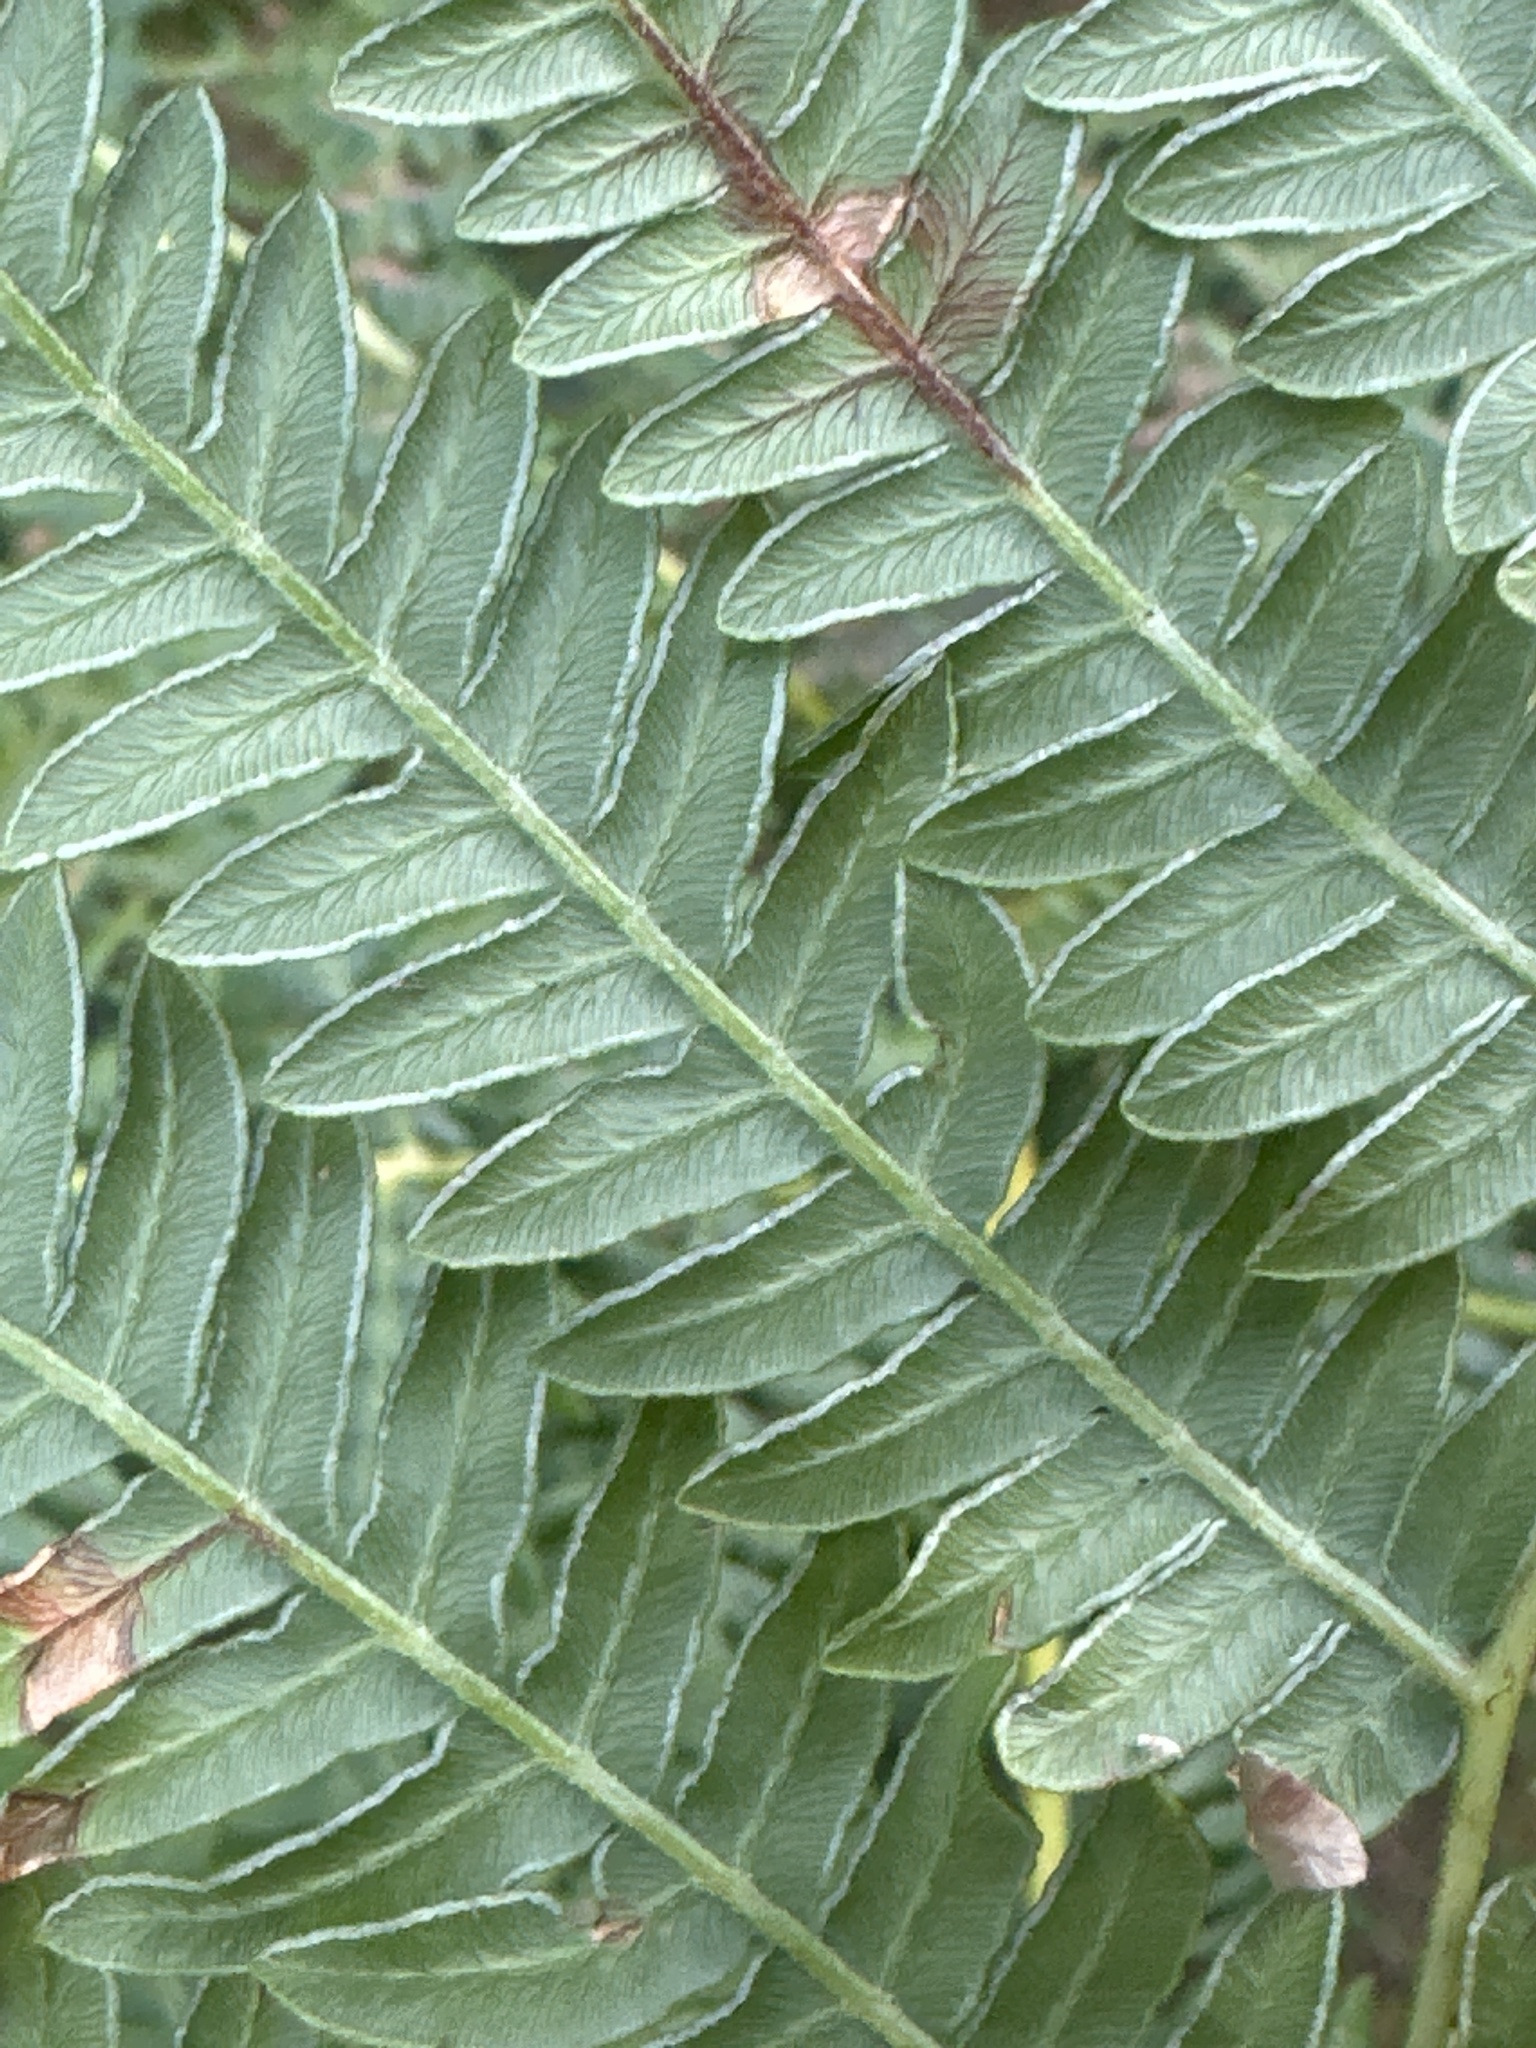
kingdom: Plantae
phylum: Tracheophyta
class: Polypodiopsida
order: Polypodiales
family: Dennstaedtiaceae
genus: Pteridium
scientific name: Pteridium aquilinum
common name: Bracken
